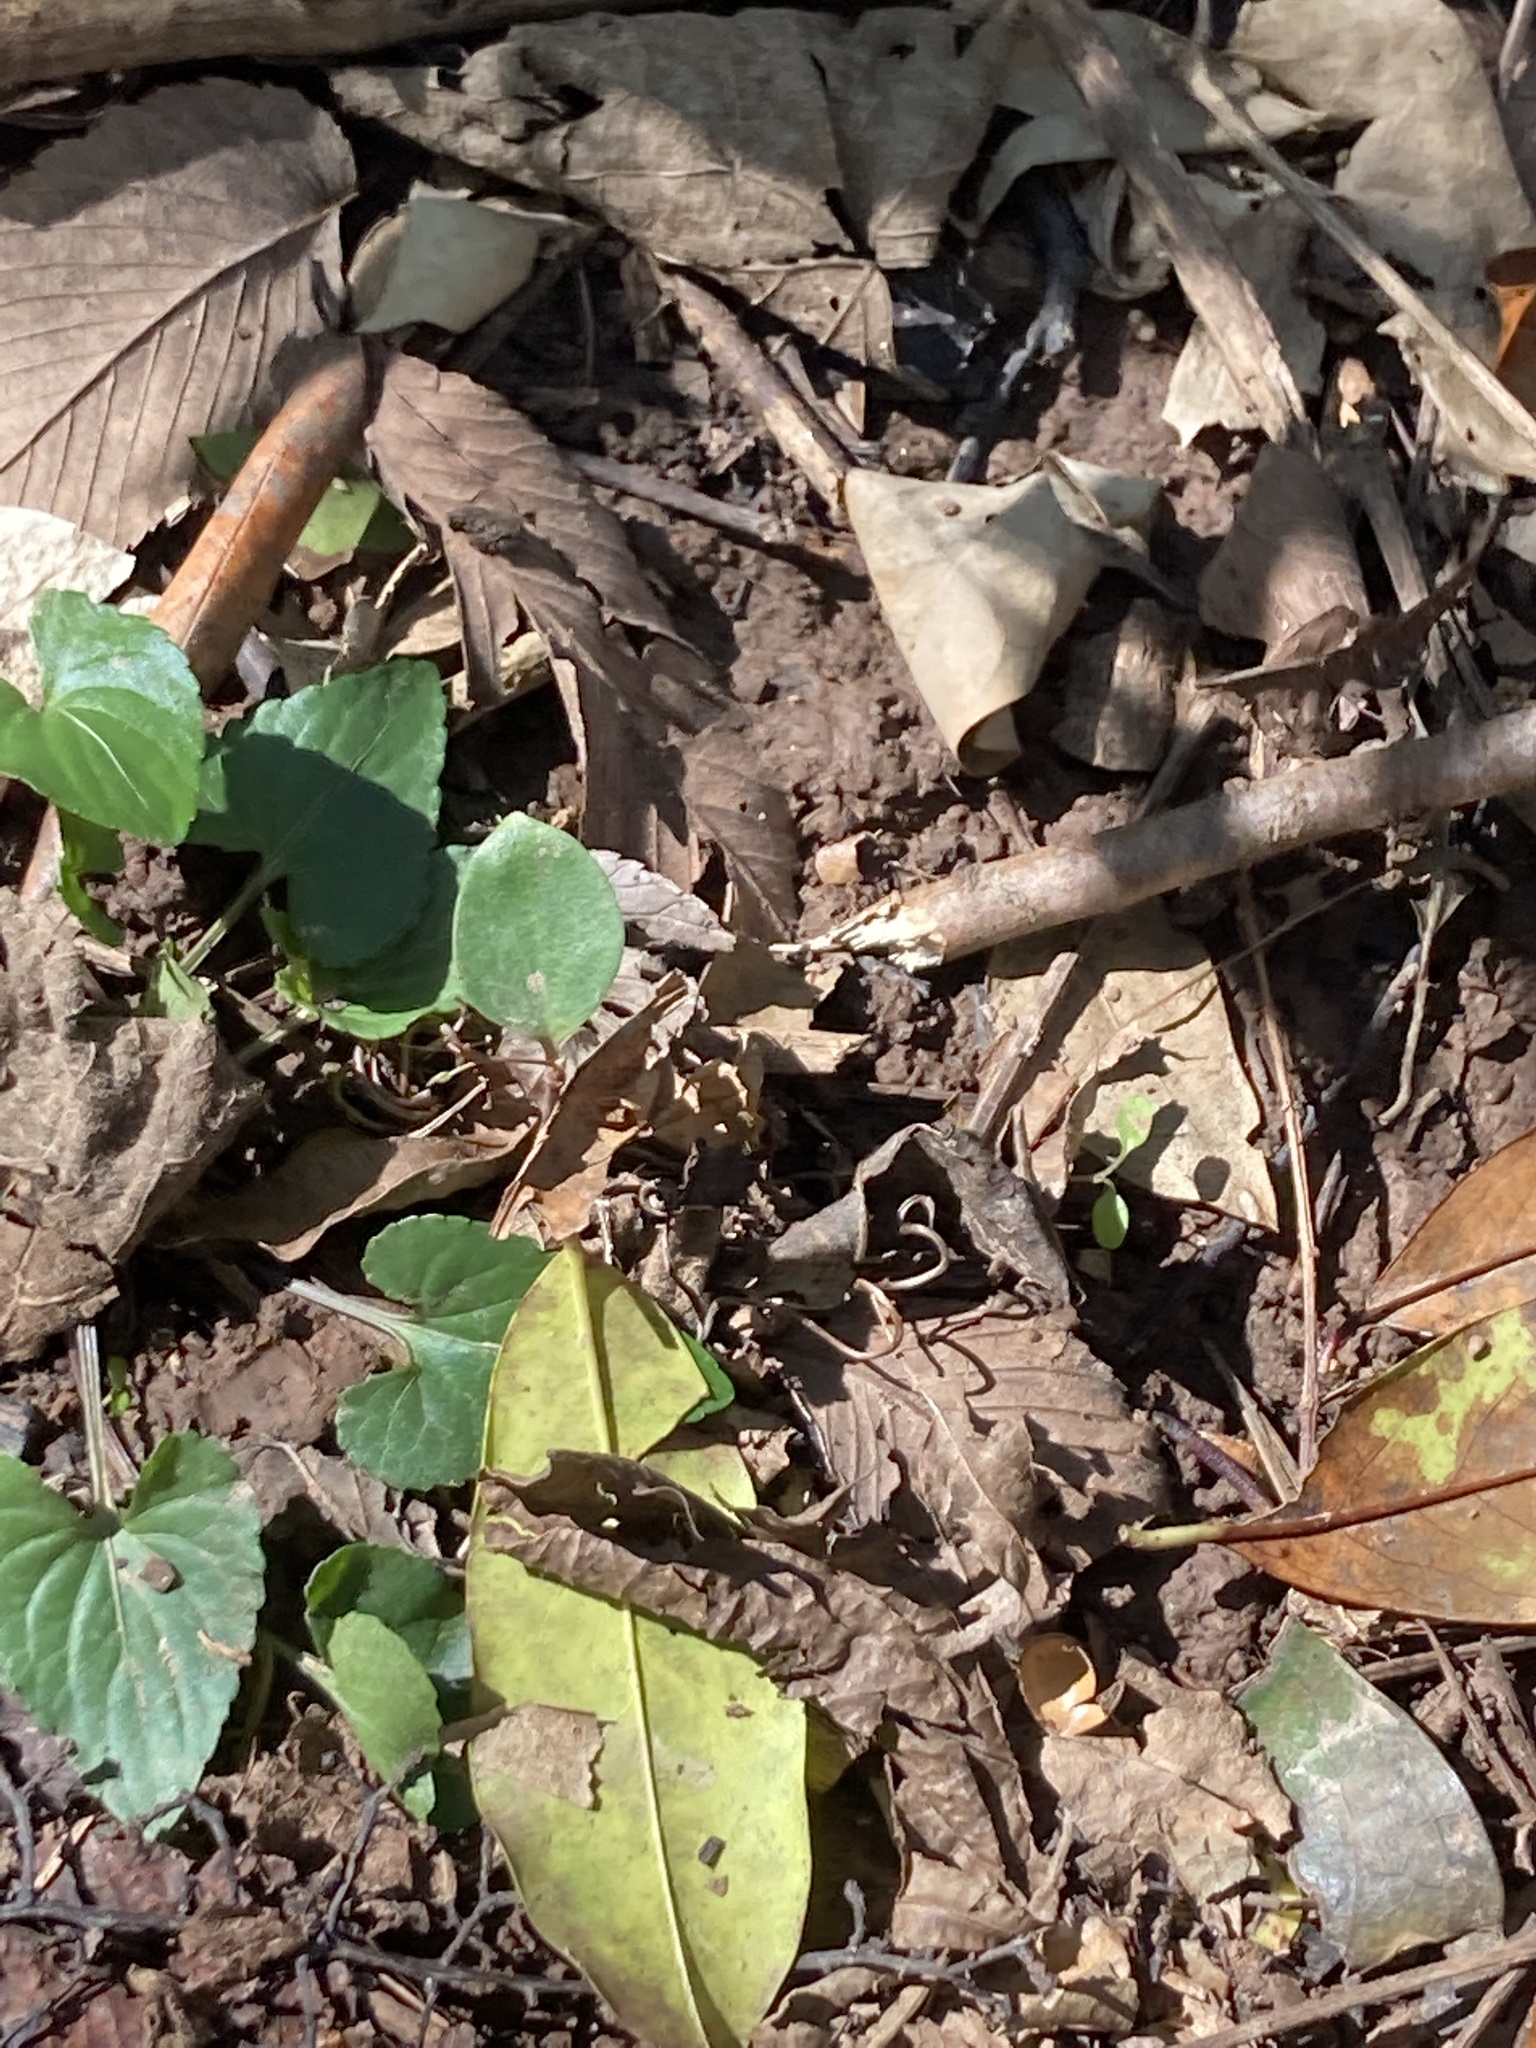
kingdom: Plantae
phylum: Tracheophyta
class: Magnoliopsida
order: Malpighiales
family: Violaceae
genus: Viola
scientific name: Viola missouriensis
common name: Missouri violet
